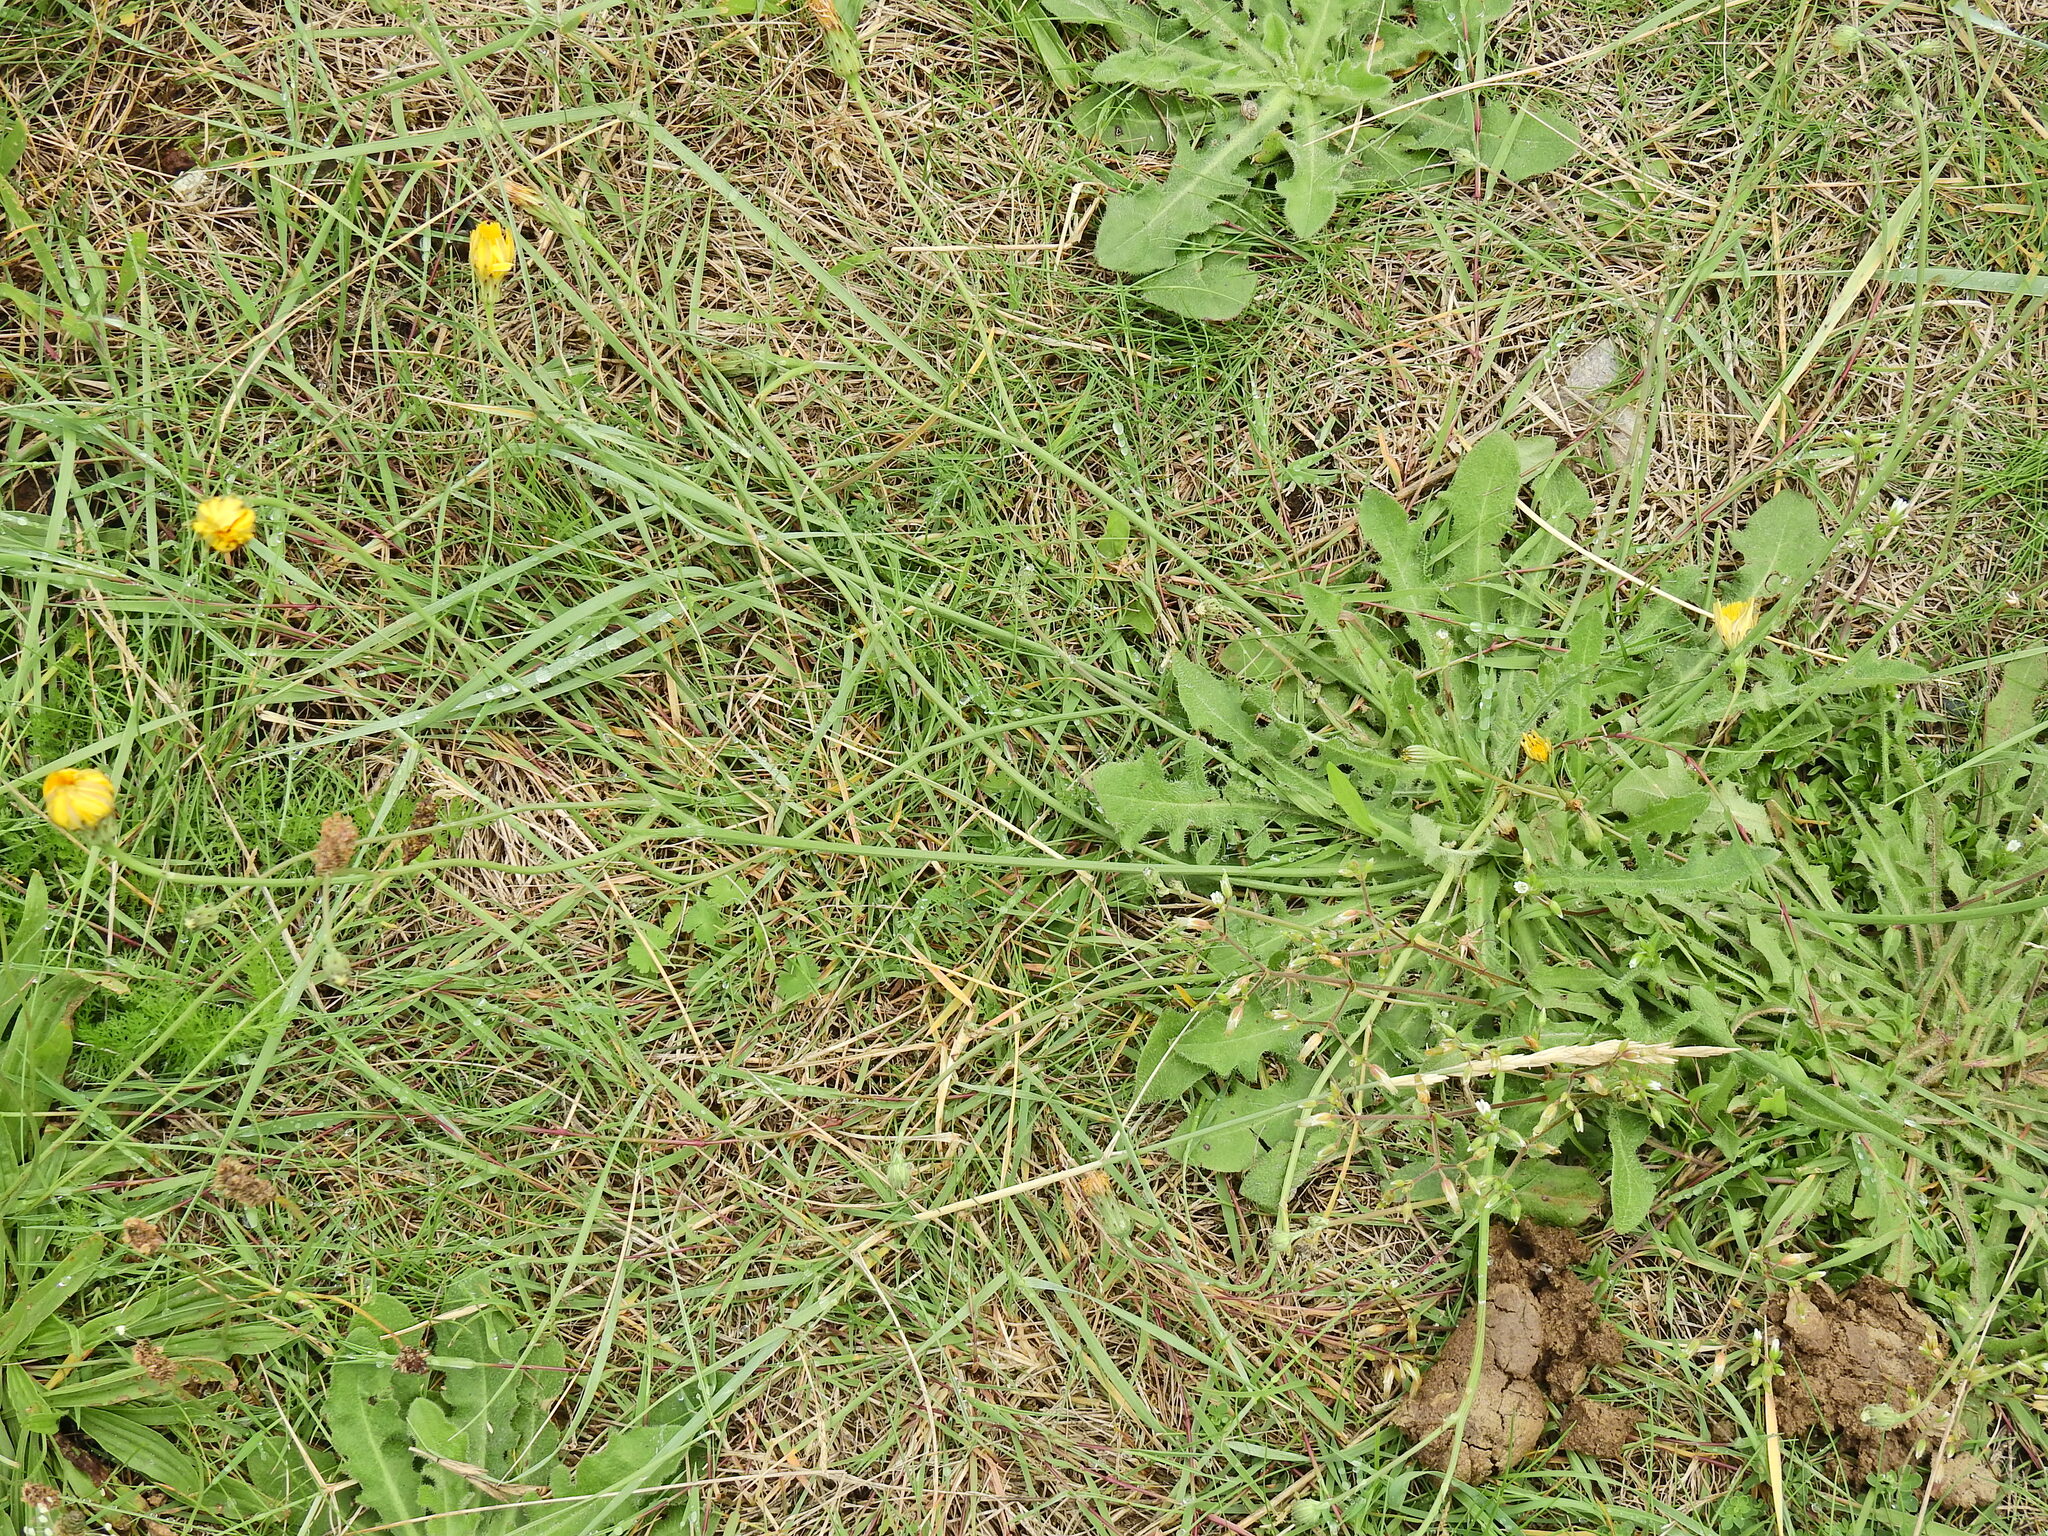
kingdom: Plantae
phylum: Tracheophyta
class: Magnoliopsida
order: Asterales
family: Asteraceae
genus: Scorzoneroides
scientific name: Scorzoneroides autumnalis
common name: Autumn hawkbit
